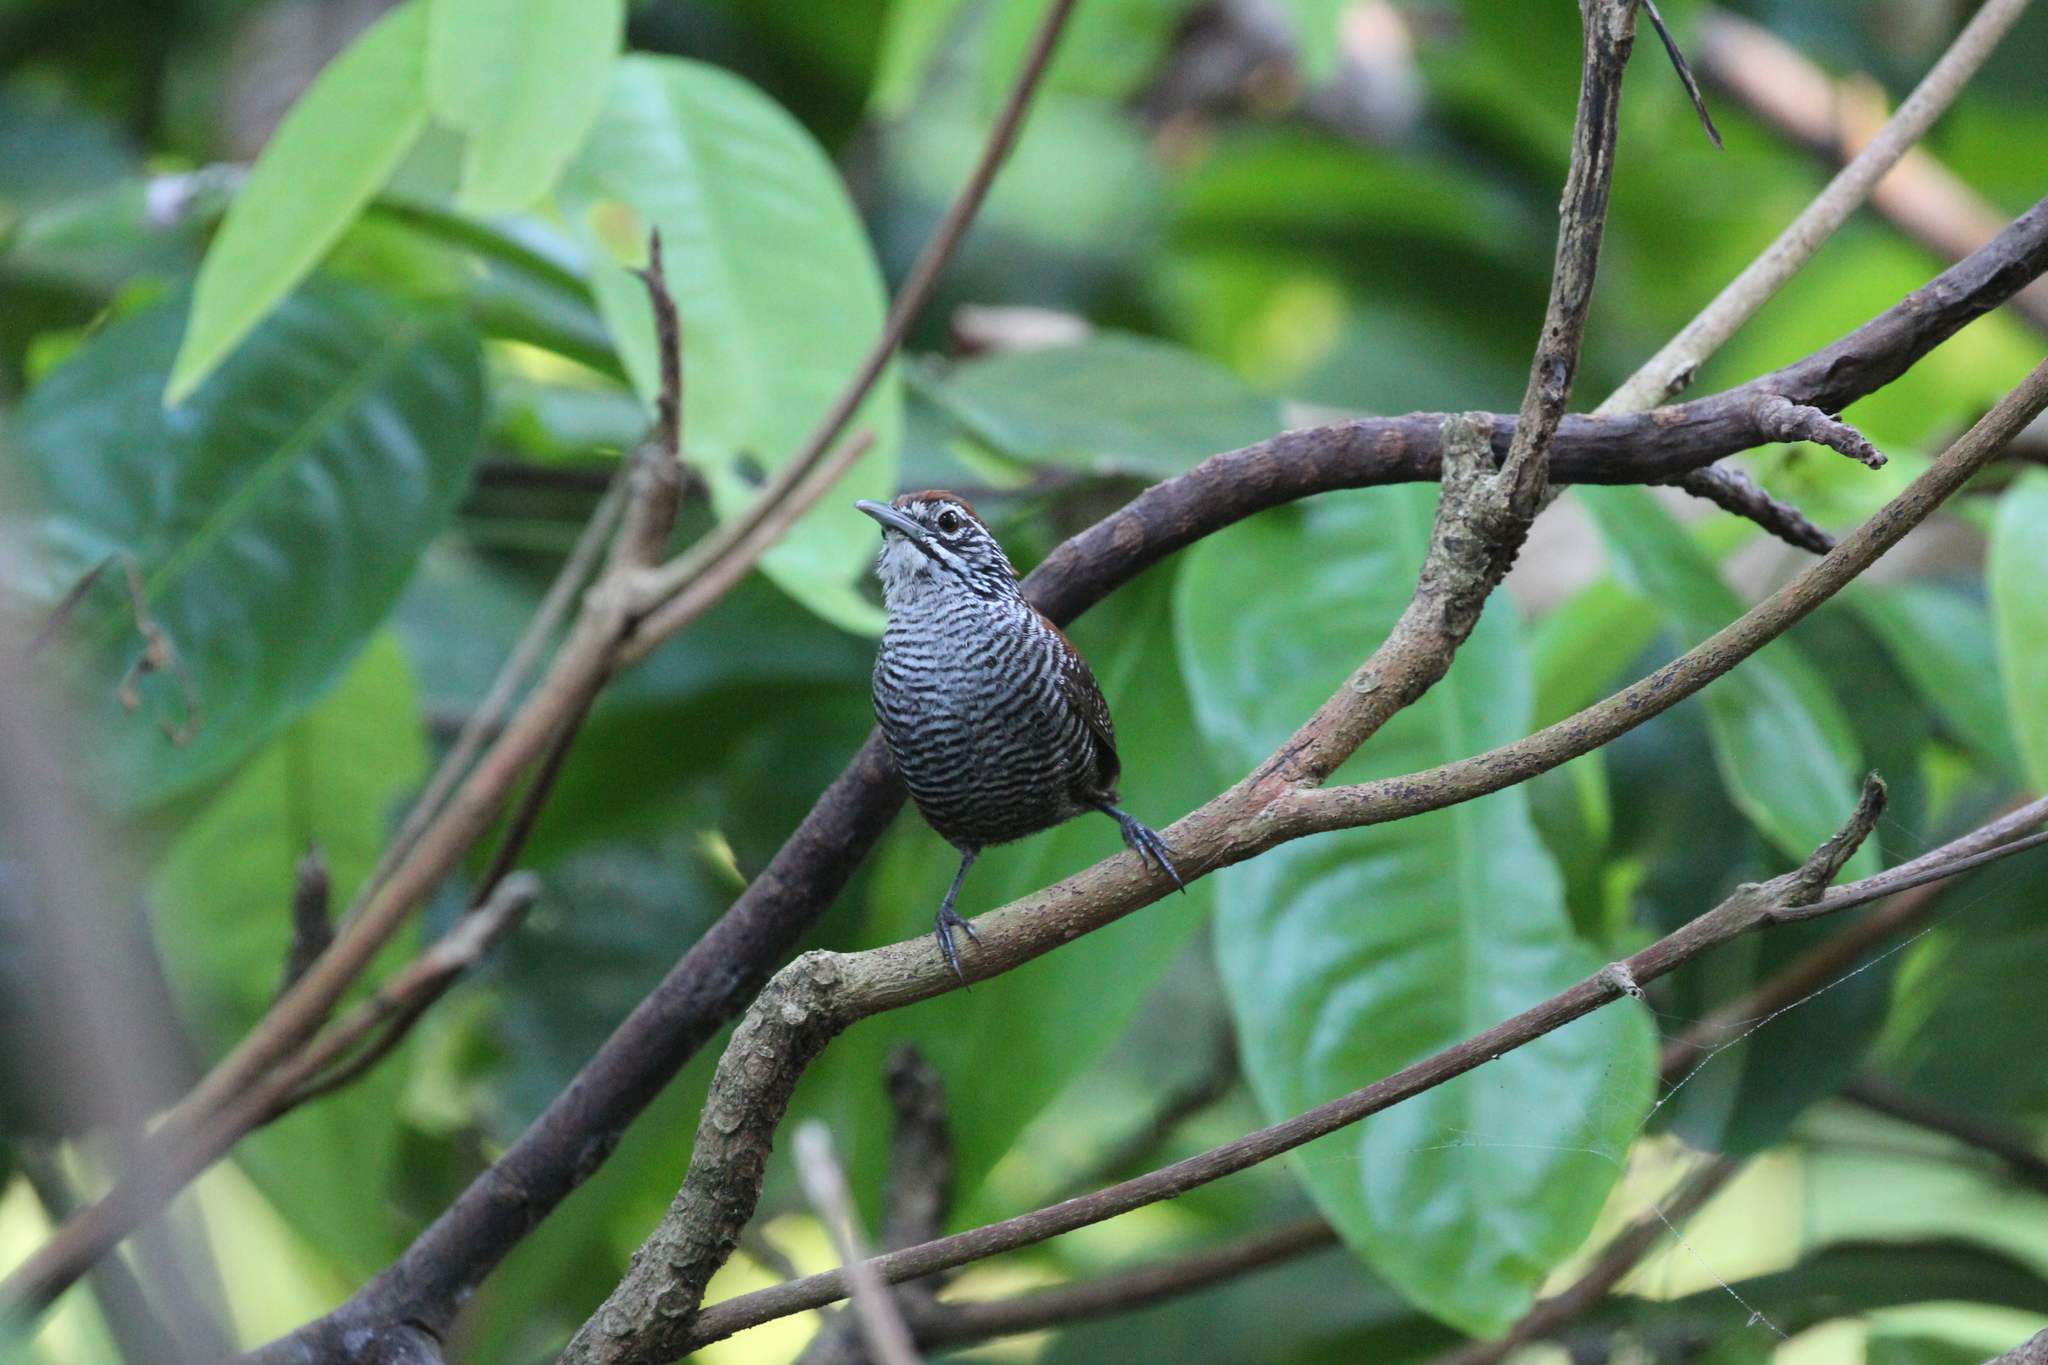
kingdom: Animalia
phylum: Chordata
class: Aves
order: Passeriformes
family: Troglodytidae
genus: Cantorchilus
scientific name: Cantorchilus semibadius
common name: Riverside wren
